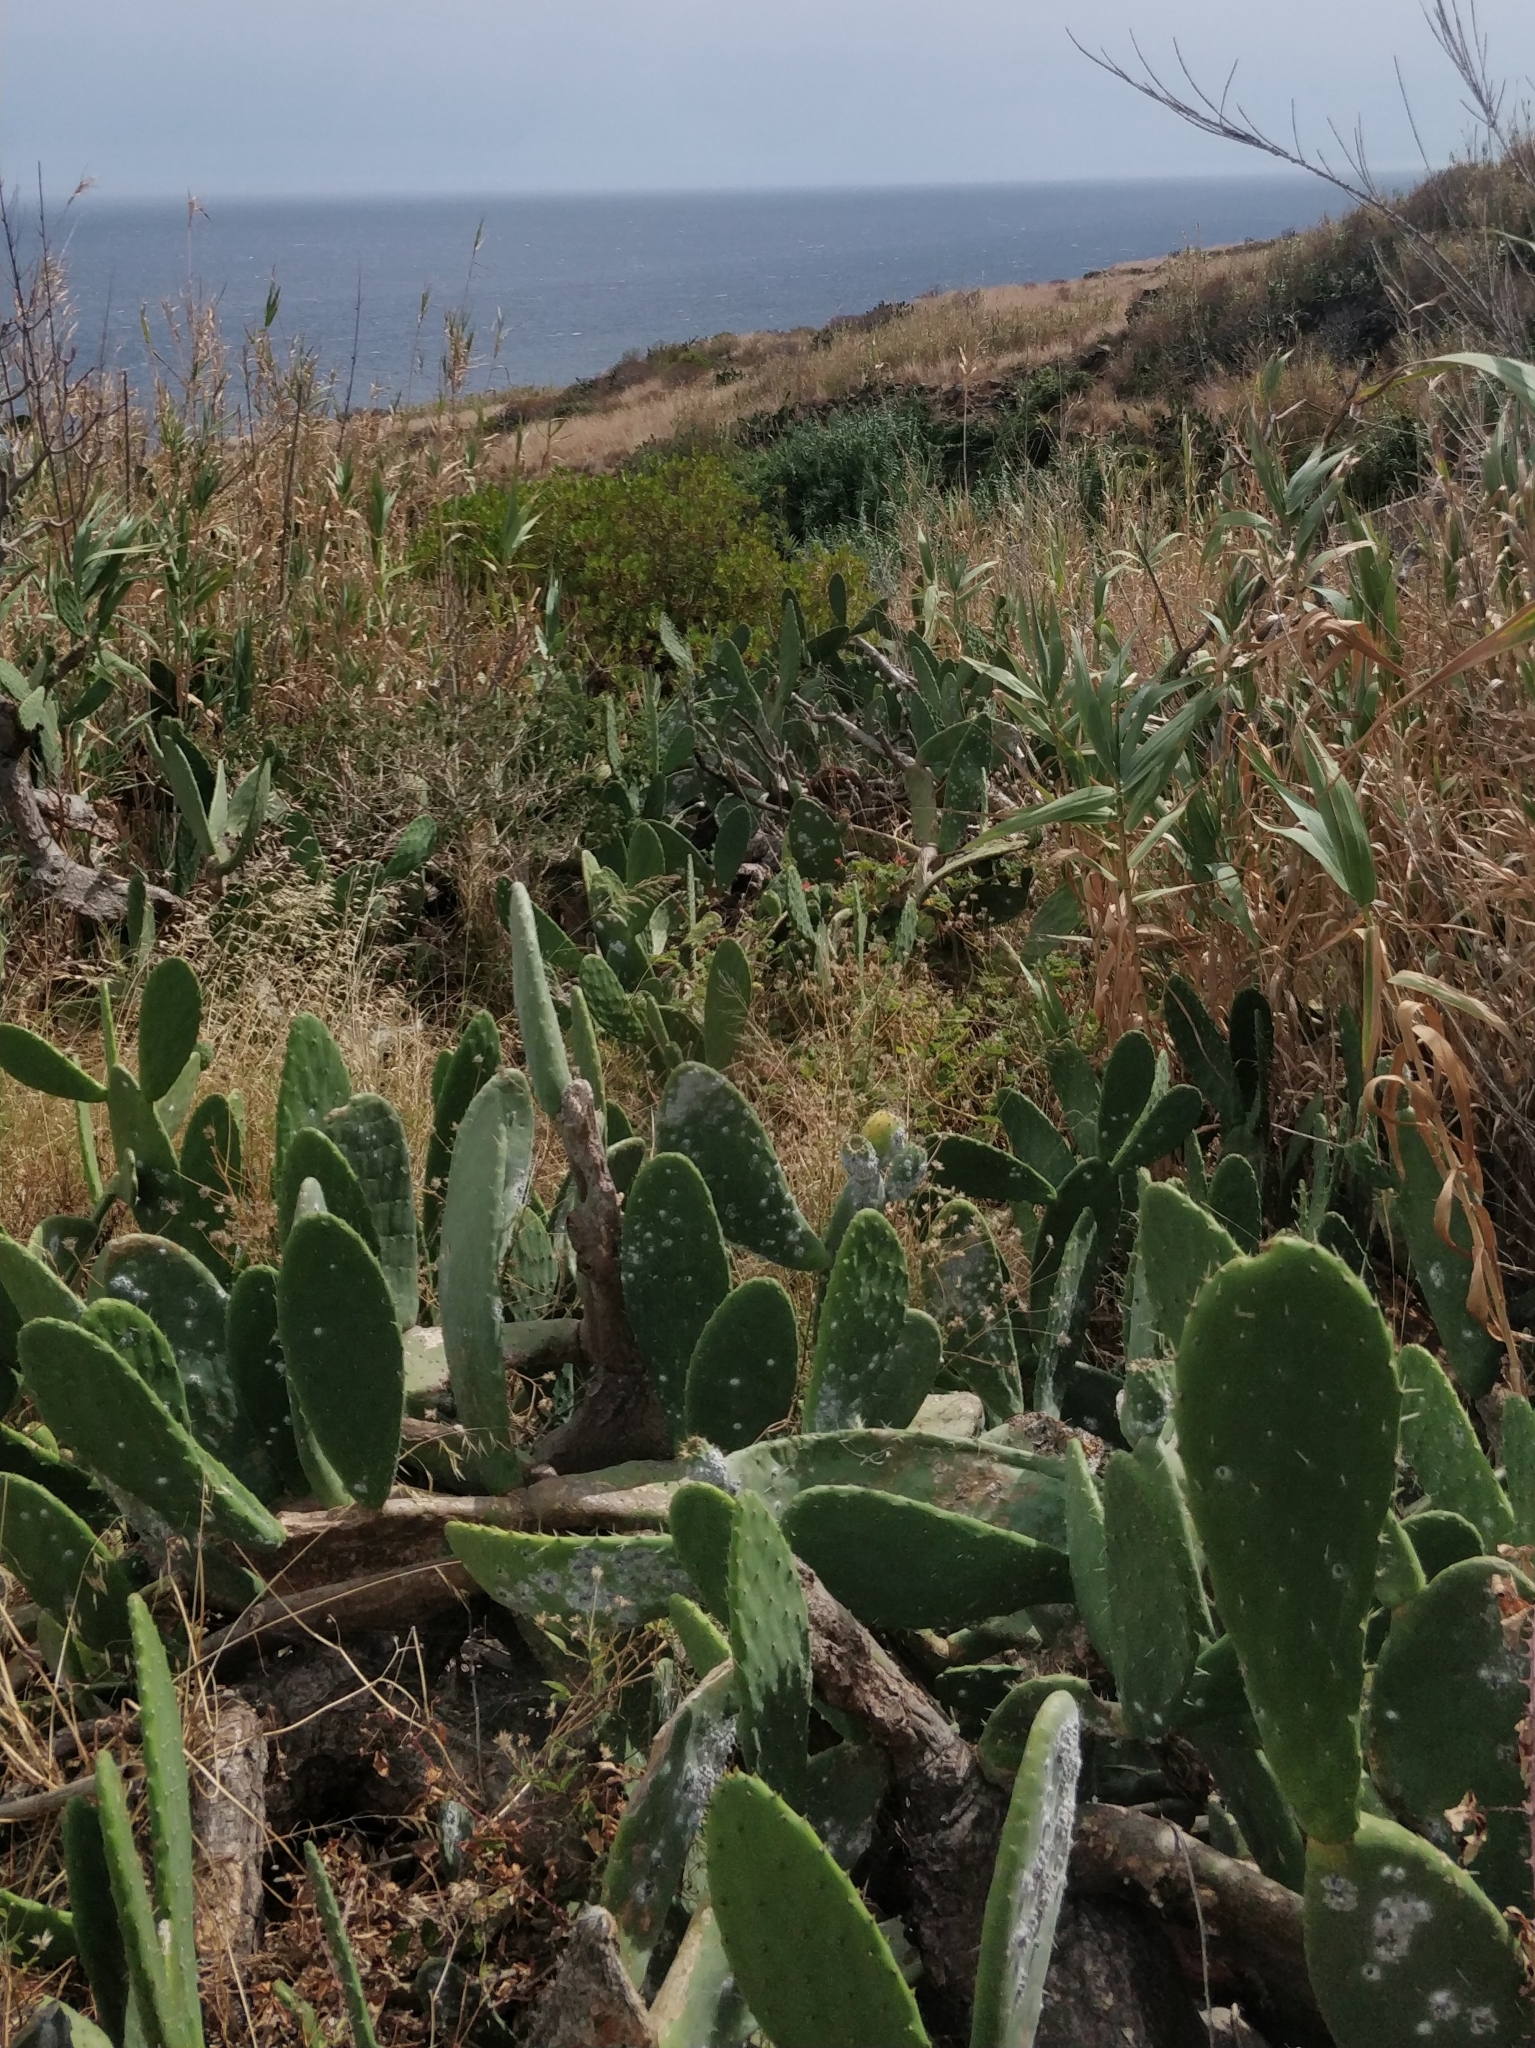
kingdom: Plantae
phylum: Tracheophyta
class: Magnoliopsida
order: Caryophyllales
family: Cactaceae
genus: Opuntia
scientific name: Opuntia ficus-indica
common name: Barbary fig
